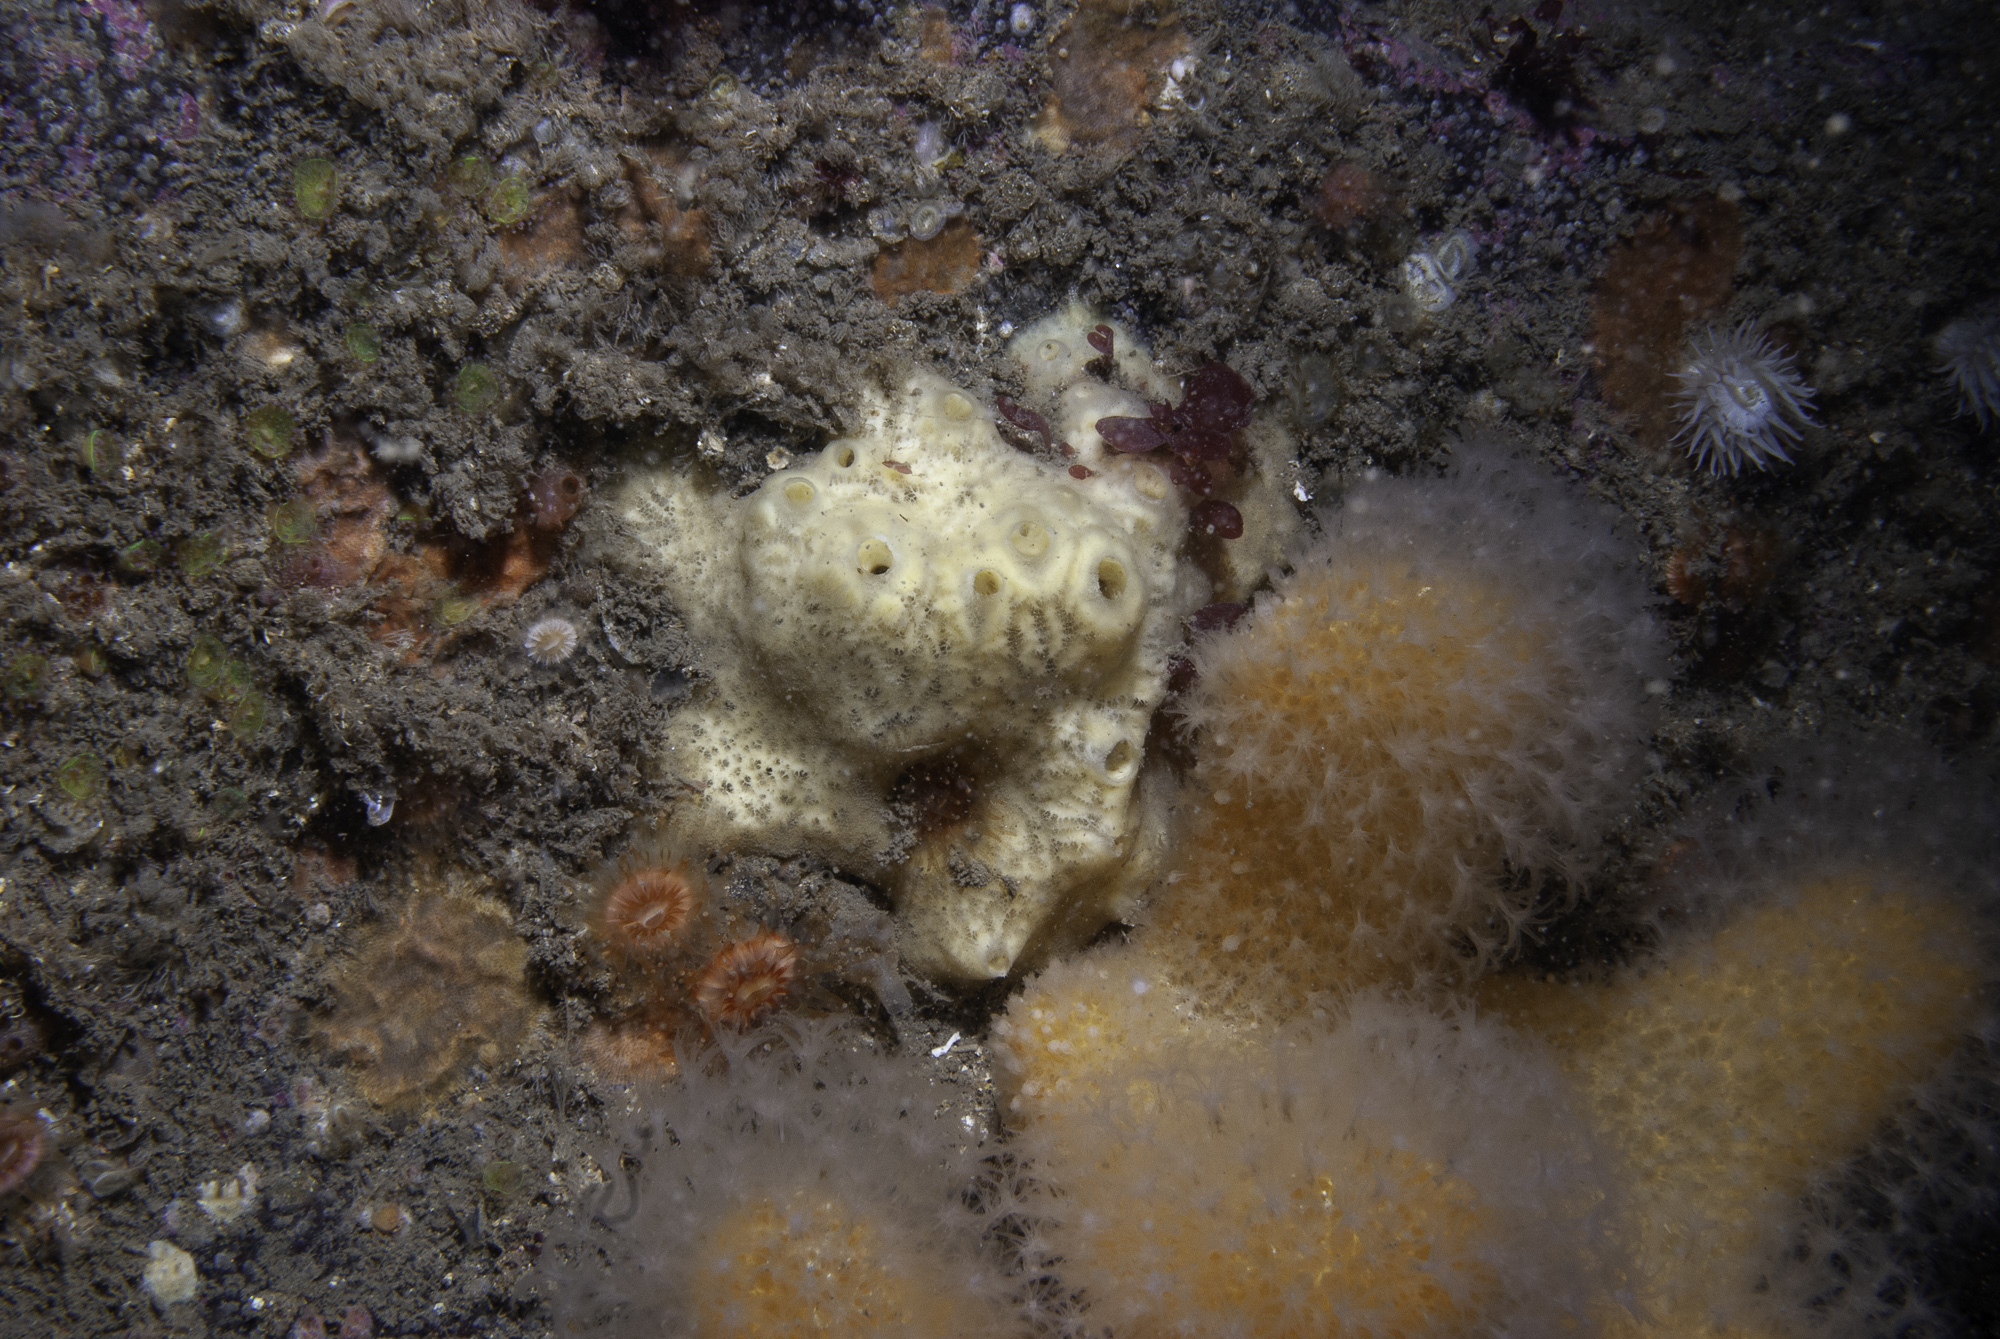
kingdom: Animalia
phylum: Porifera
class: Demospongiae
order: Poecilosclerida
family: Myxillidae
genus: Myxilla
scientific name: Myxilla incrustans
